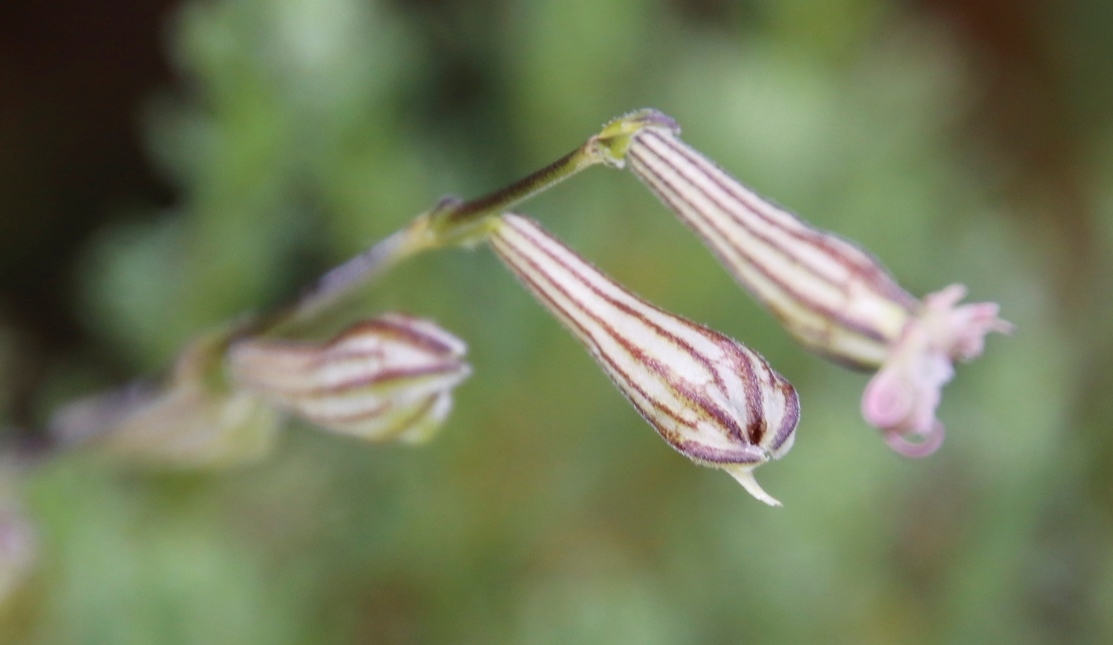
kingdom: Plantae
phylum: Tracheophyta
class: Magnoliopsida
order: Caryophyllales
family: Caryophyllaceae
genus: Silene
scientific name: Silene burchellii
